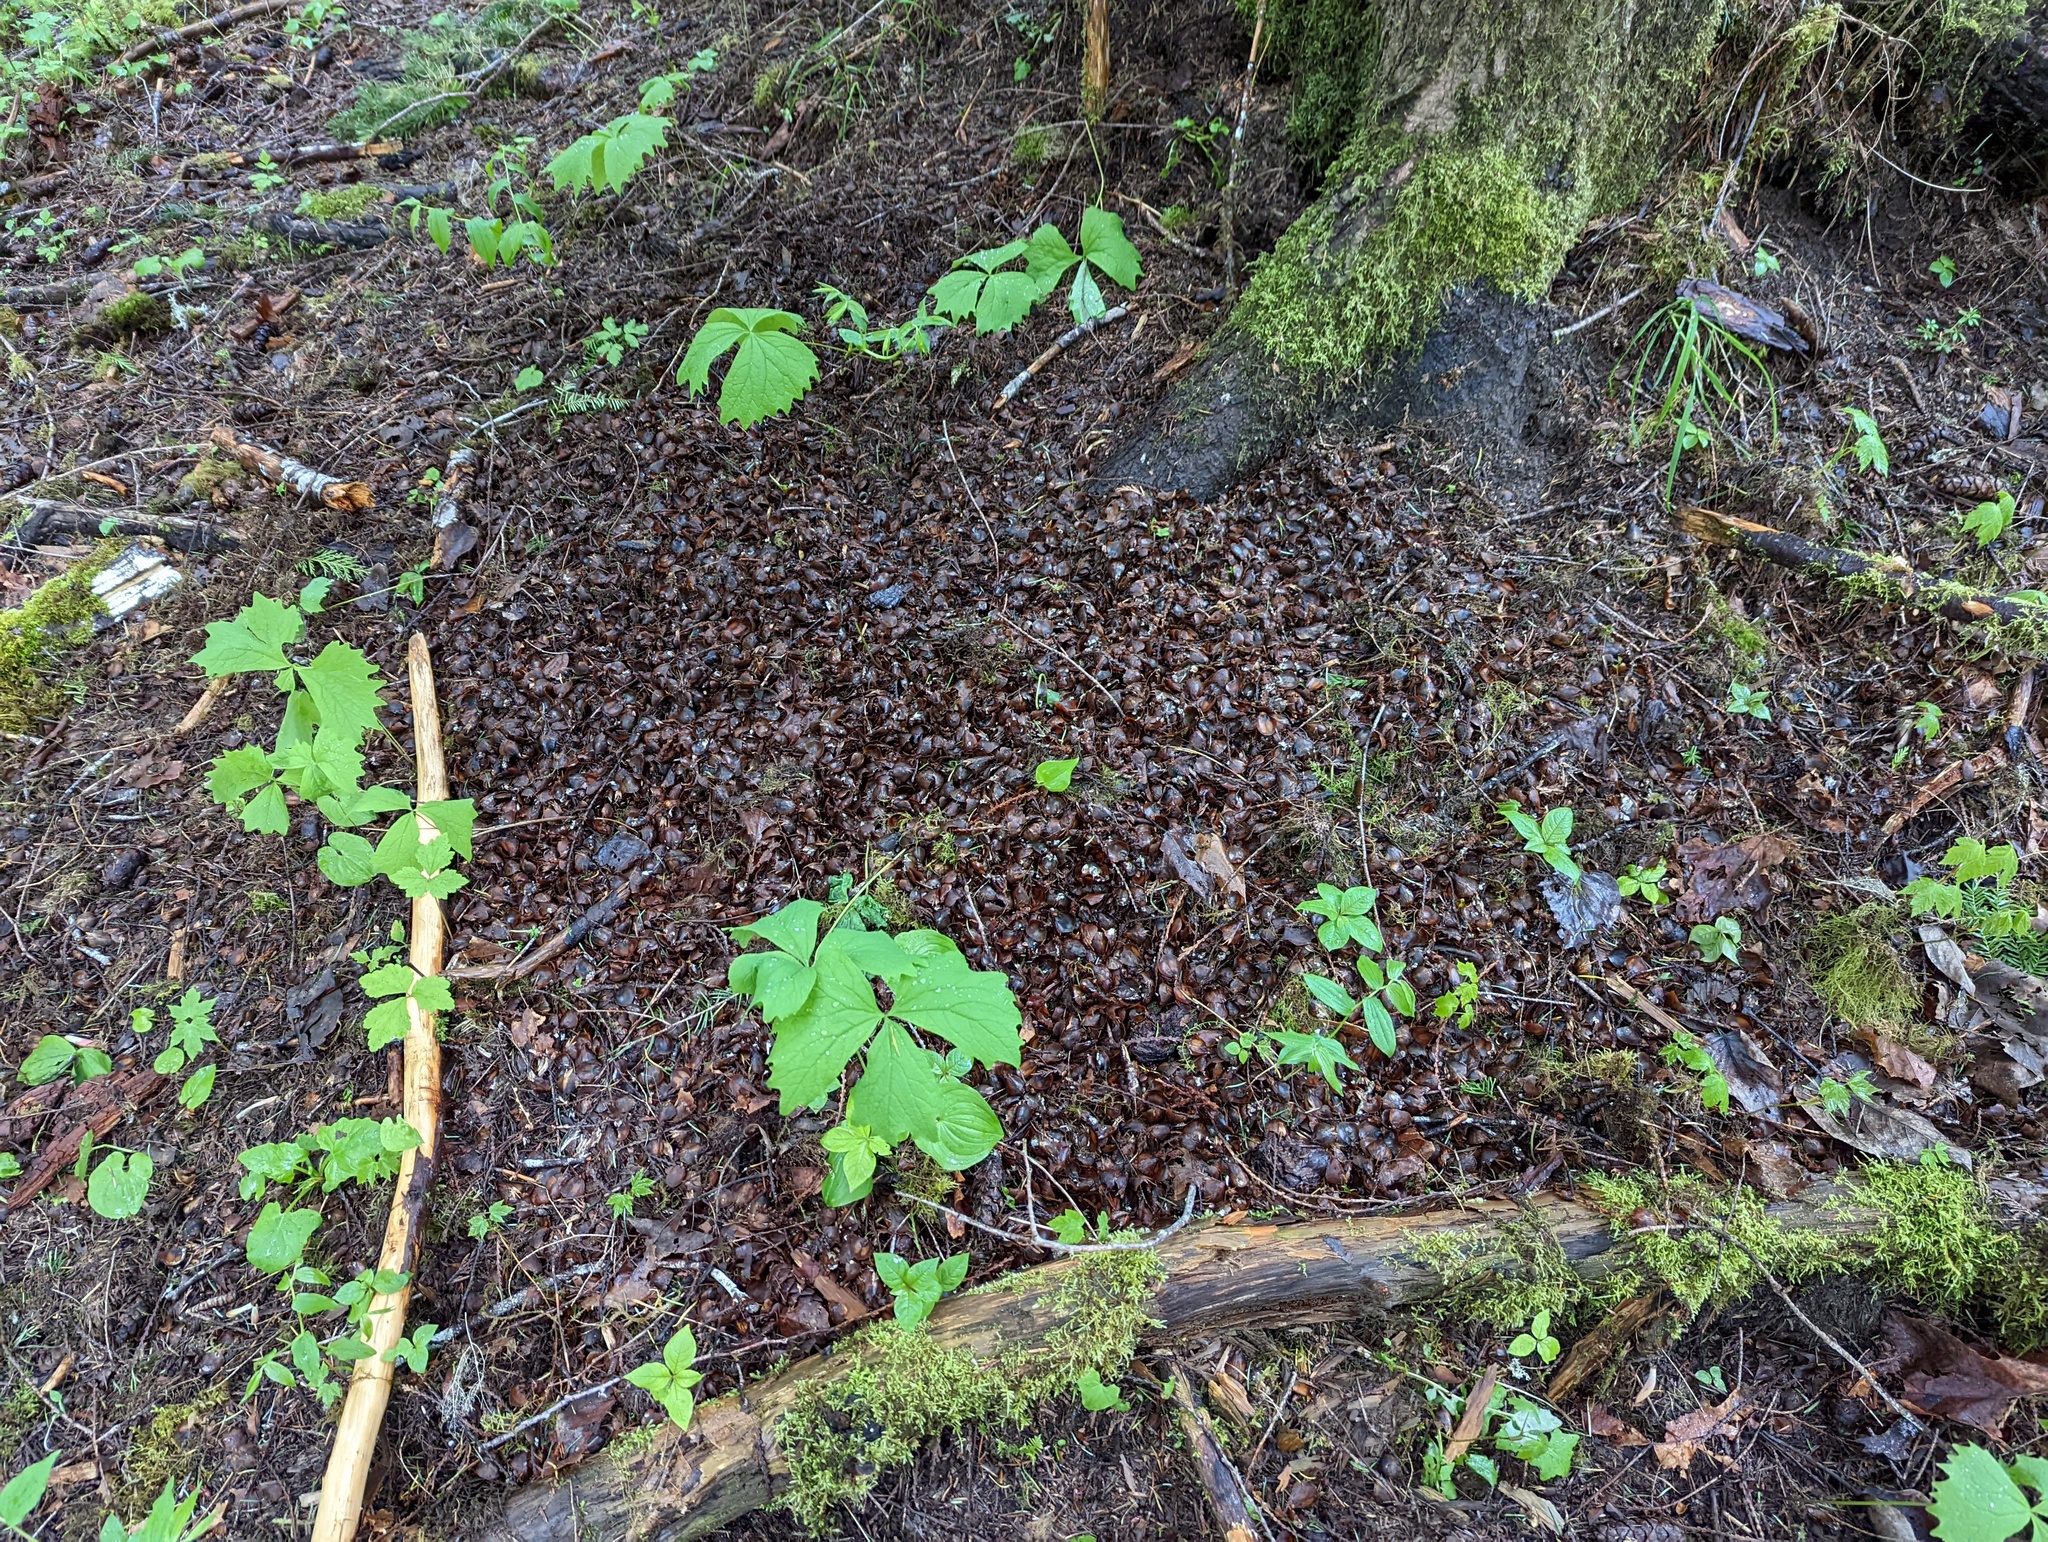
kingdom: Animalia
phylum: Chordata
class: Mammalia
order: Rodentia
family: Sciuridae
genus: Tamiasciurus
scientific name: Tamiasciurus hudsonicus
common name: Red squirrel
